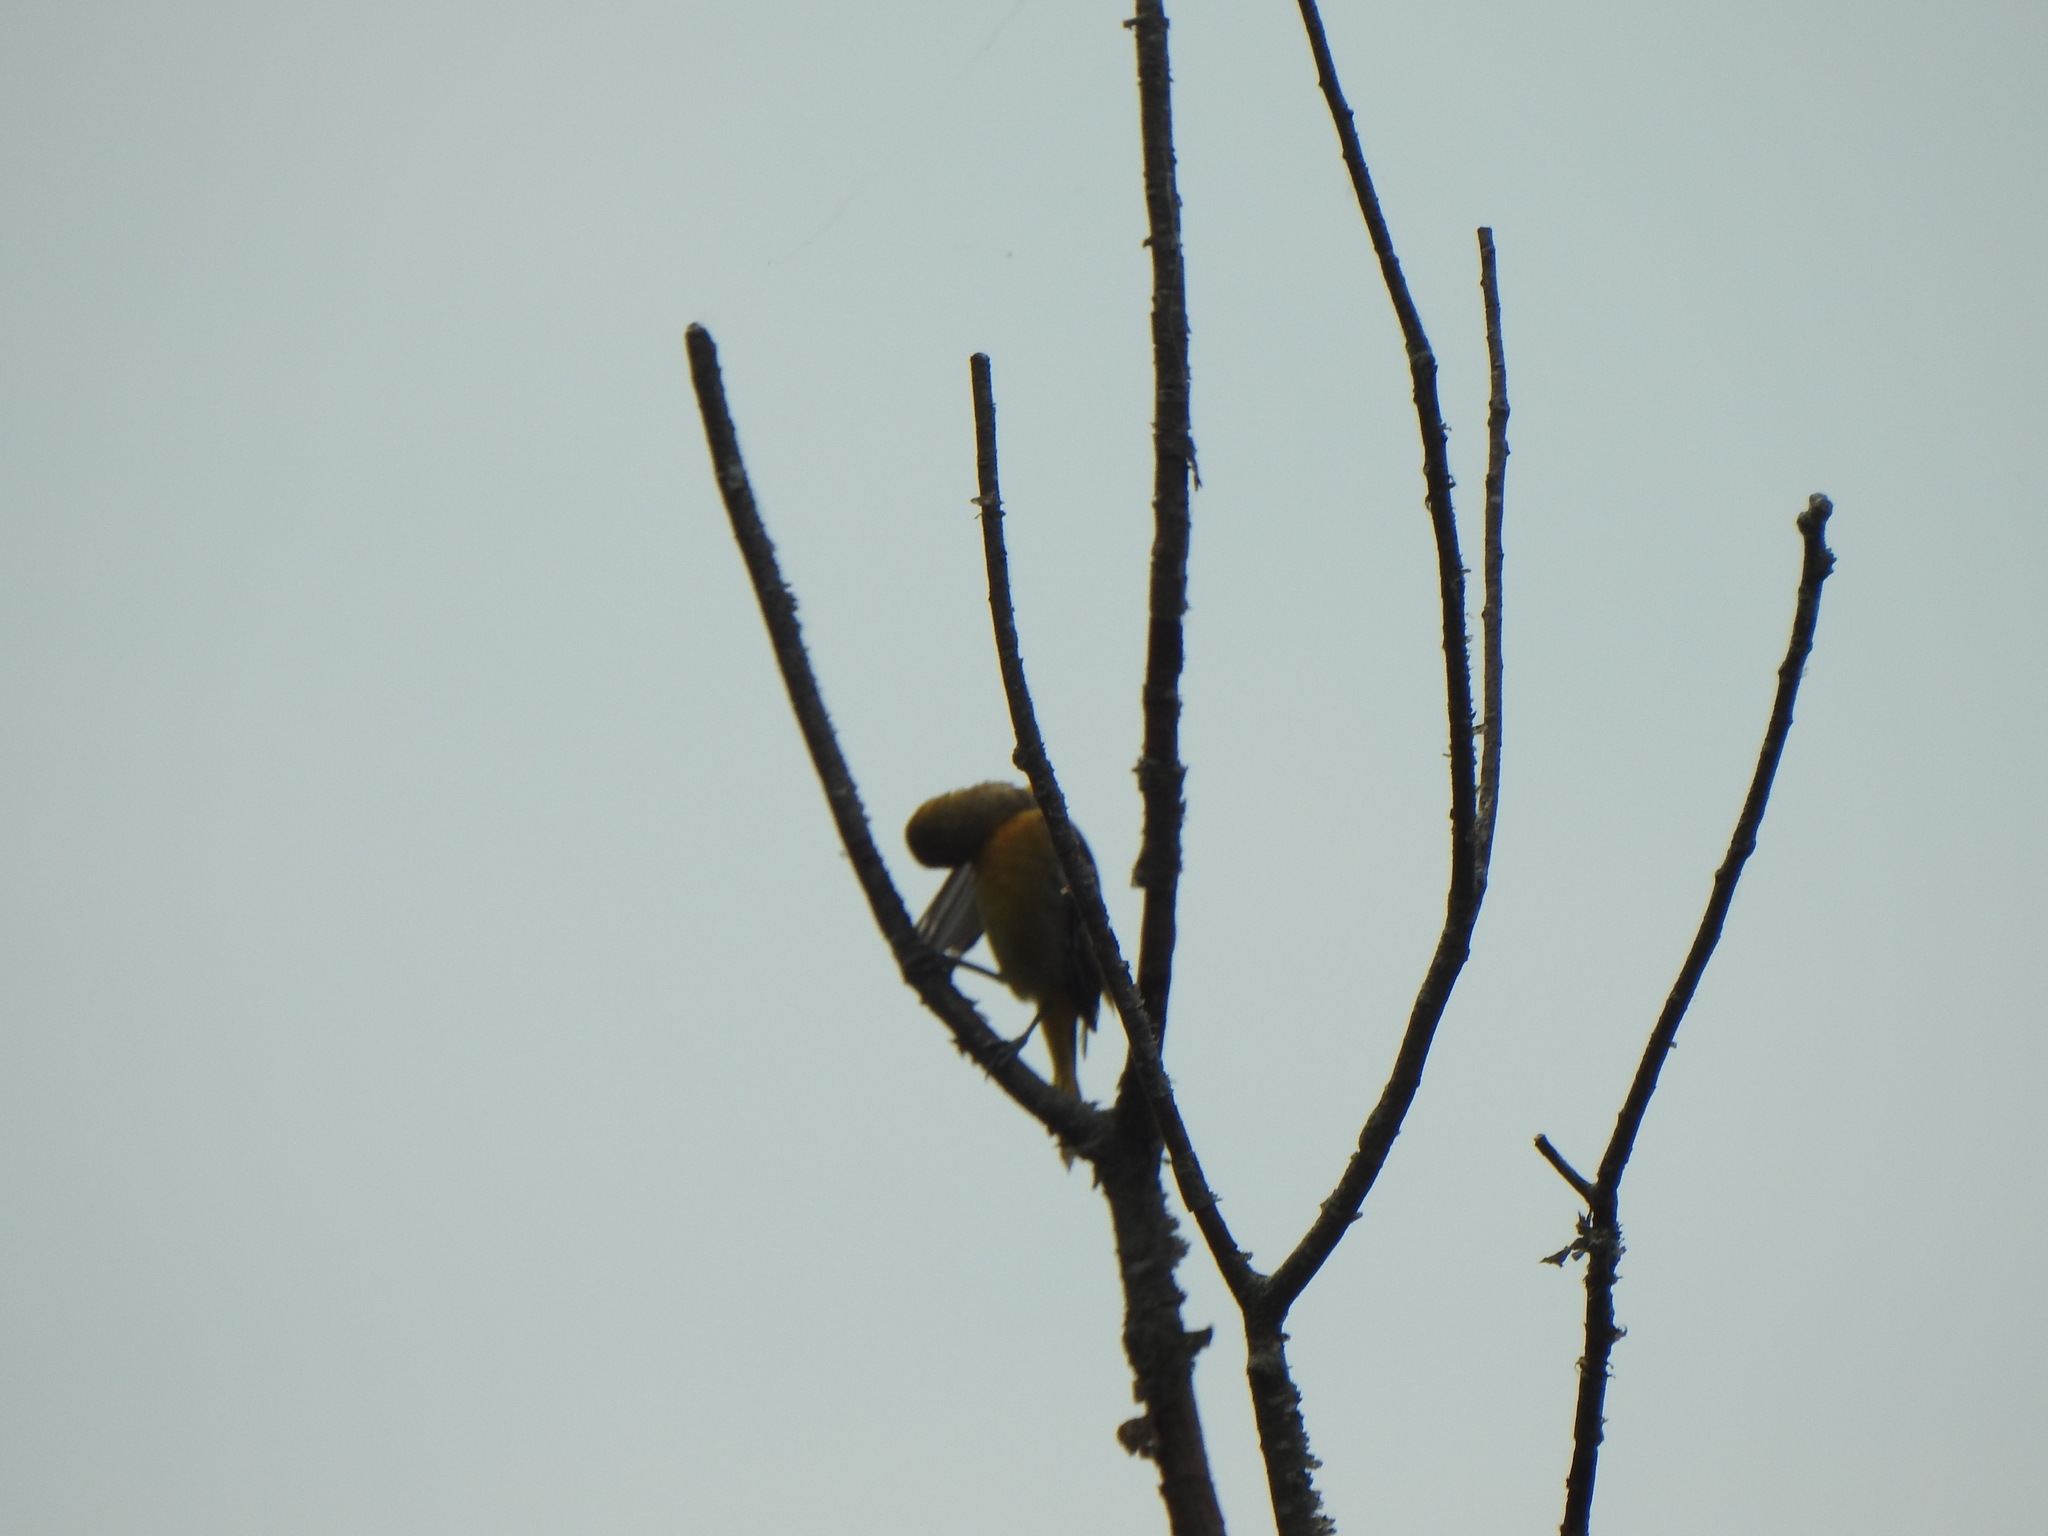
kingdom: Animalia
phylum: Chordata
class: Aves
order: Passeriformes
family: Icteridae
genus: Icterus
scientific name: Icterus galbula
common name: Baltimore oriole
